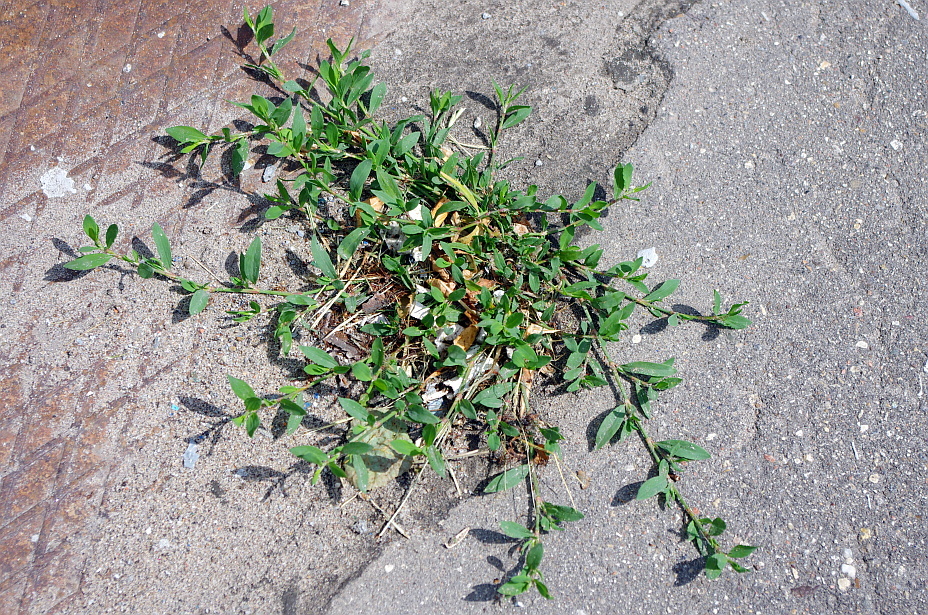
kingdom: Plantae
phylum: Tracheophyta
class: Magnoliopsida
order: Caryophyllales
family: Polygonaceae
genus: Polygonum
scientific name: Polygonum
